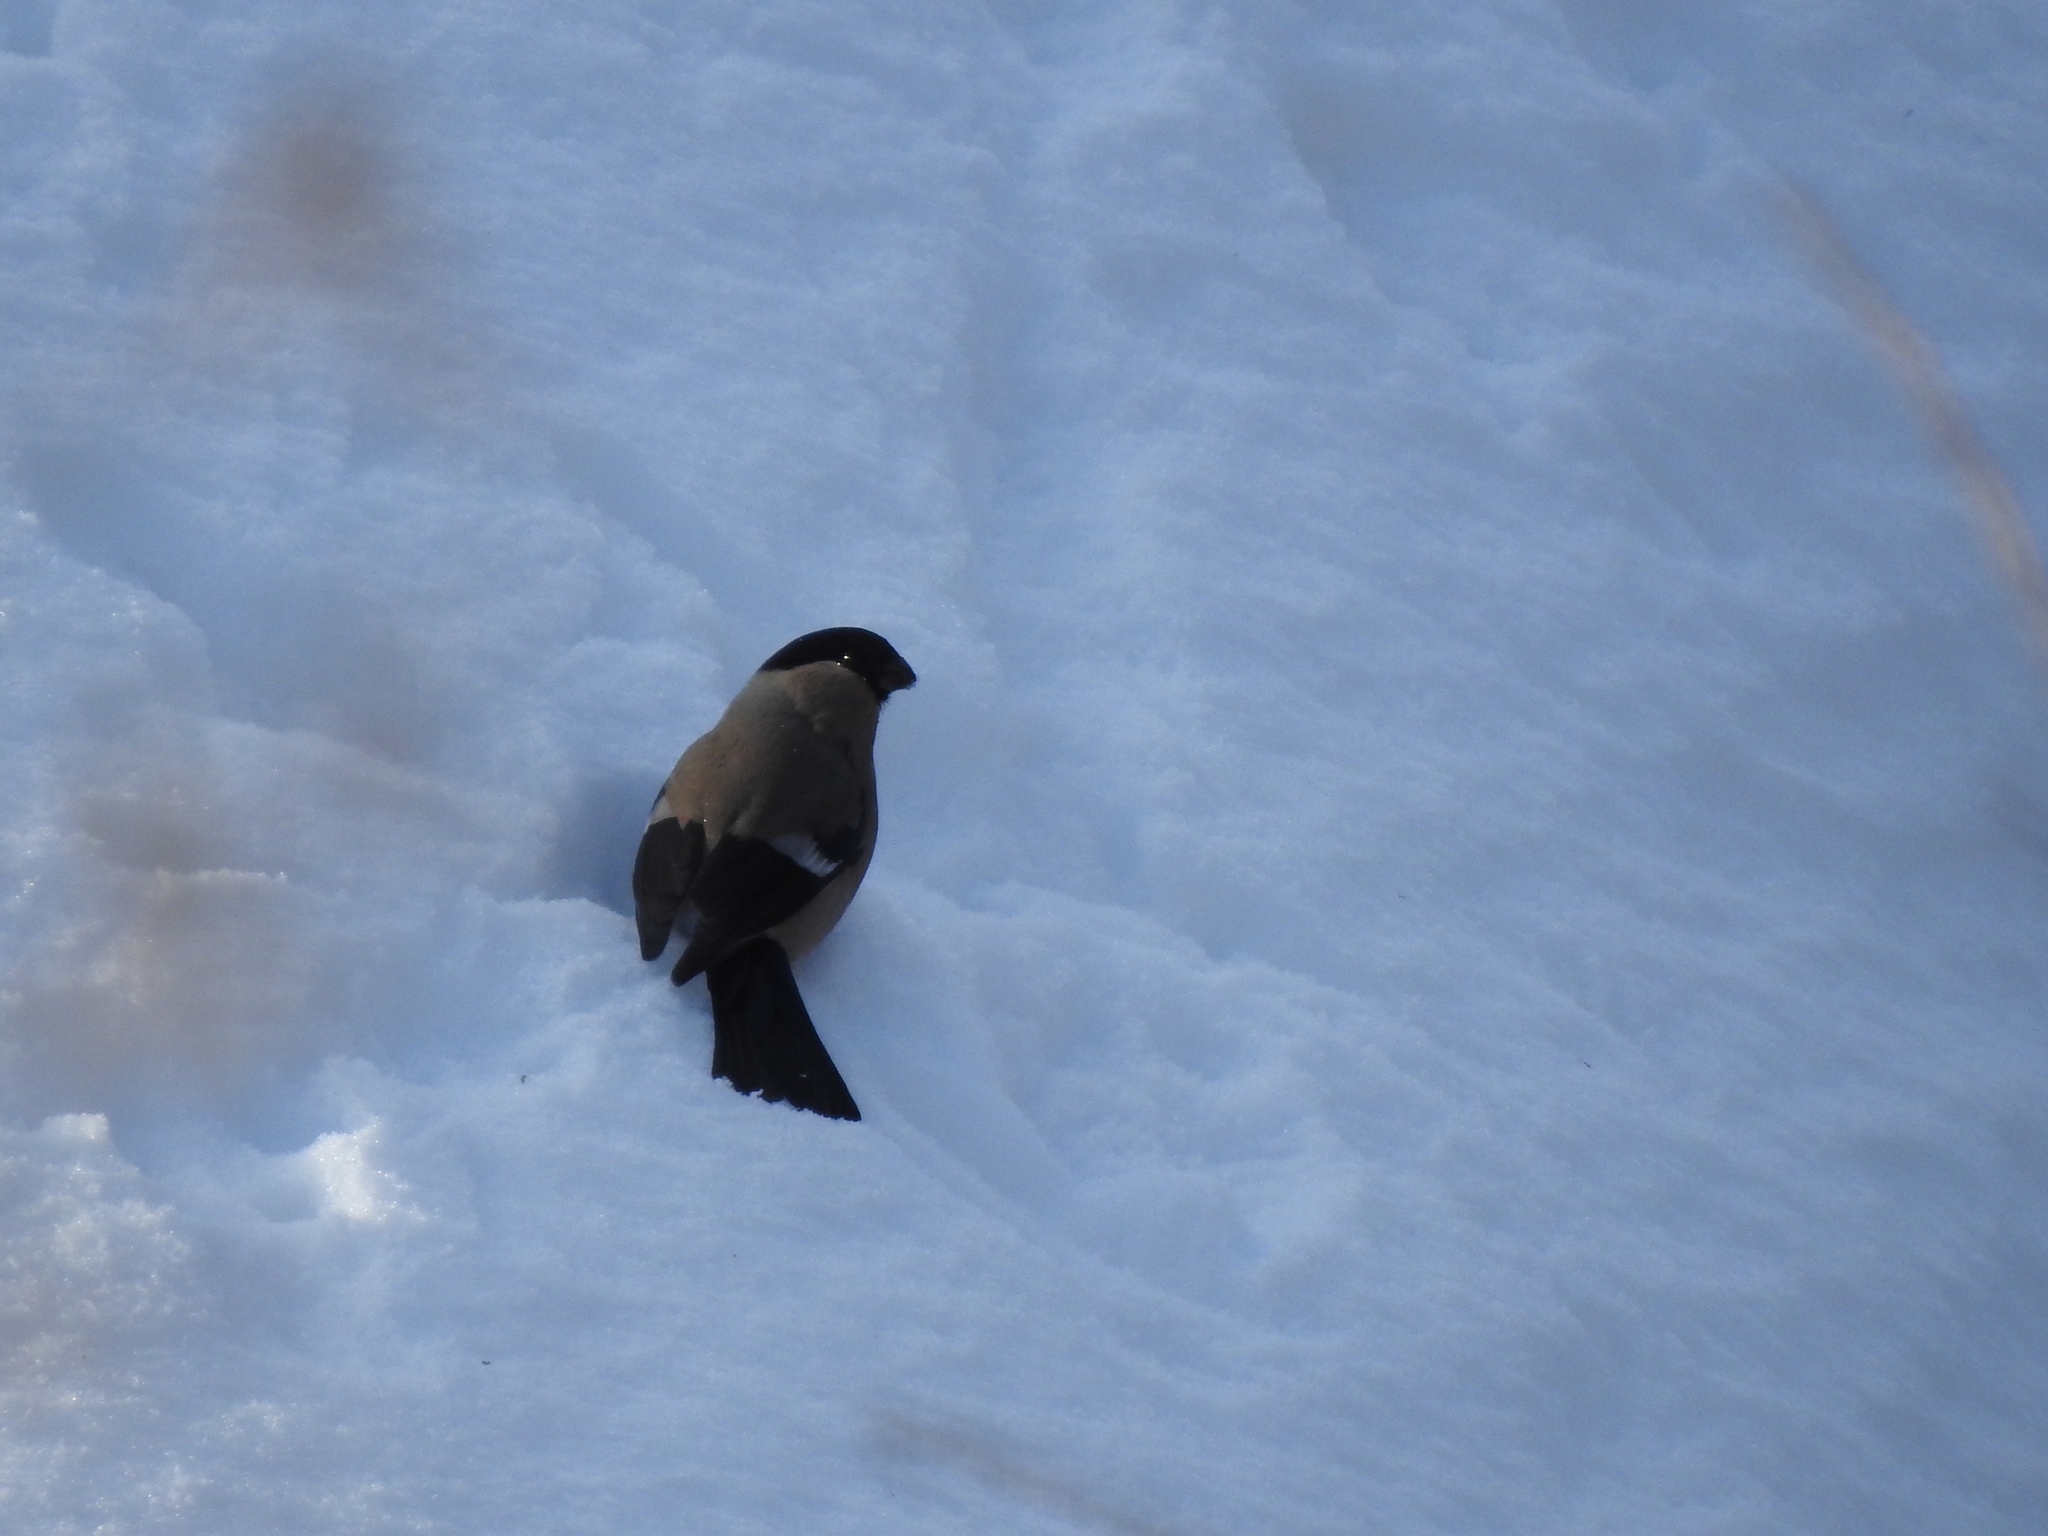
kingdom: Animalia
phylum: Chordata
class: Aves
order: Passeriformes
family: Fringillidae
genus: Pyrrhula
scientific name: Pyrrhula pyrrhula
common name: Eurasian bullfinch
